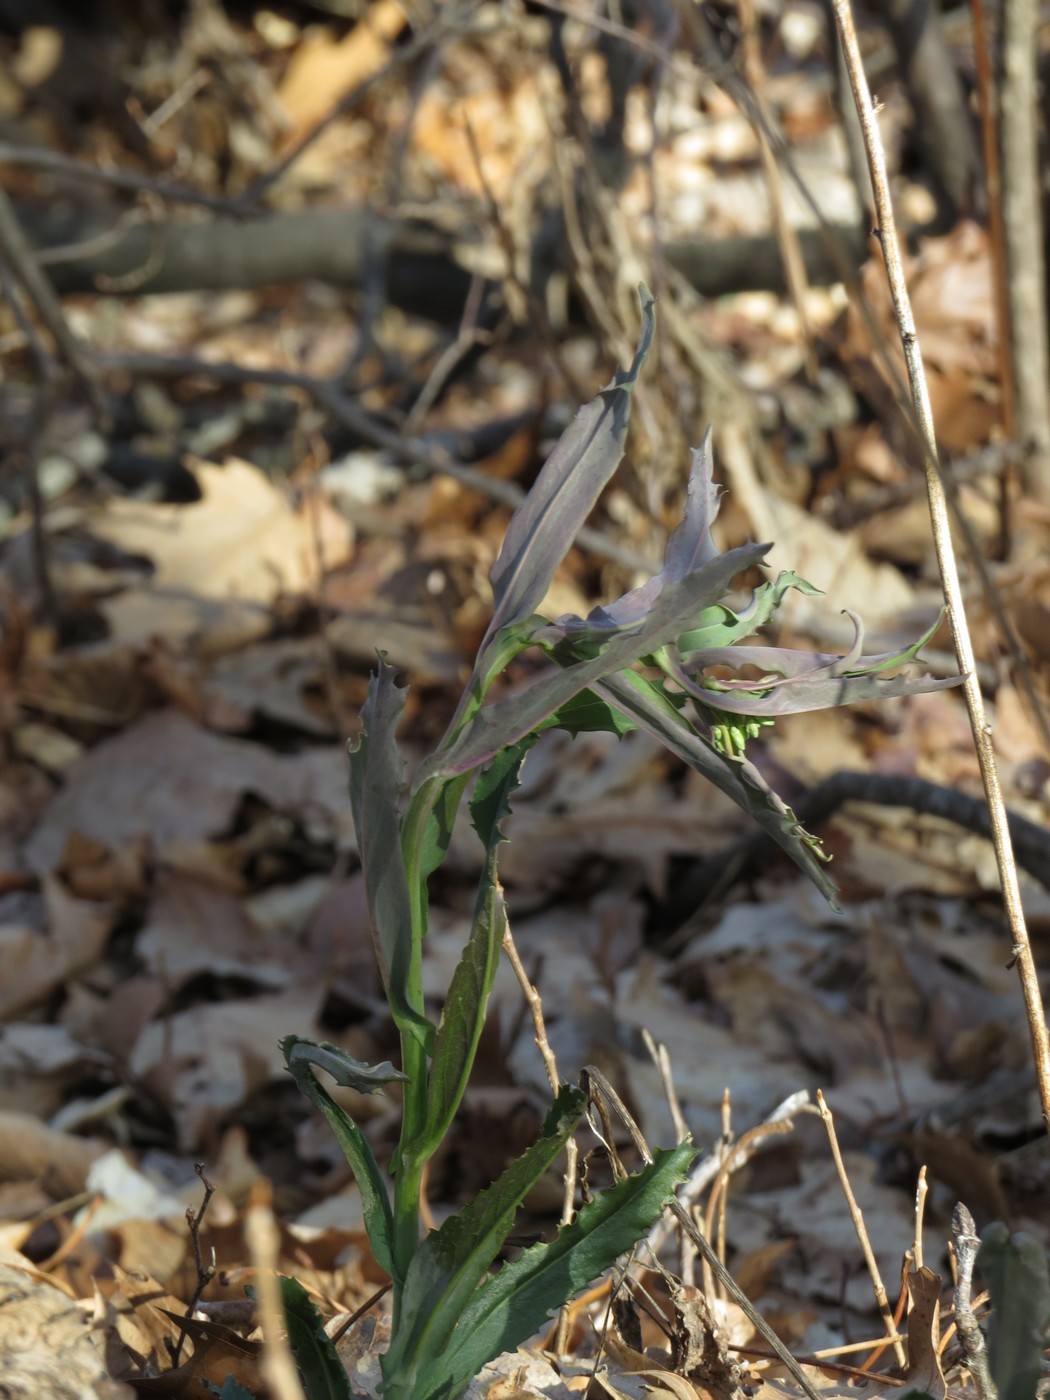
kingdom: Plantae
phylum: Tracheophyta
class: Magnoliopsida
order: Brassicales
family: Brassicaceae
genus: Borodinia
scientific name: Borodinia laevigata
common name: Smooth rockcress
